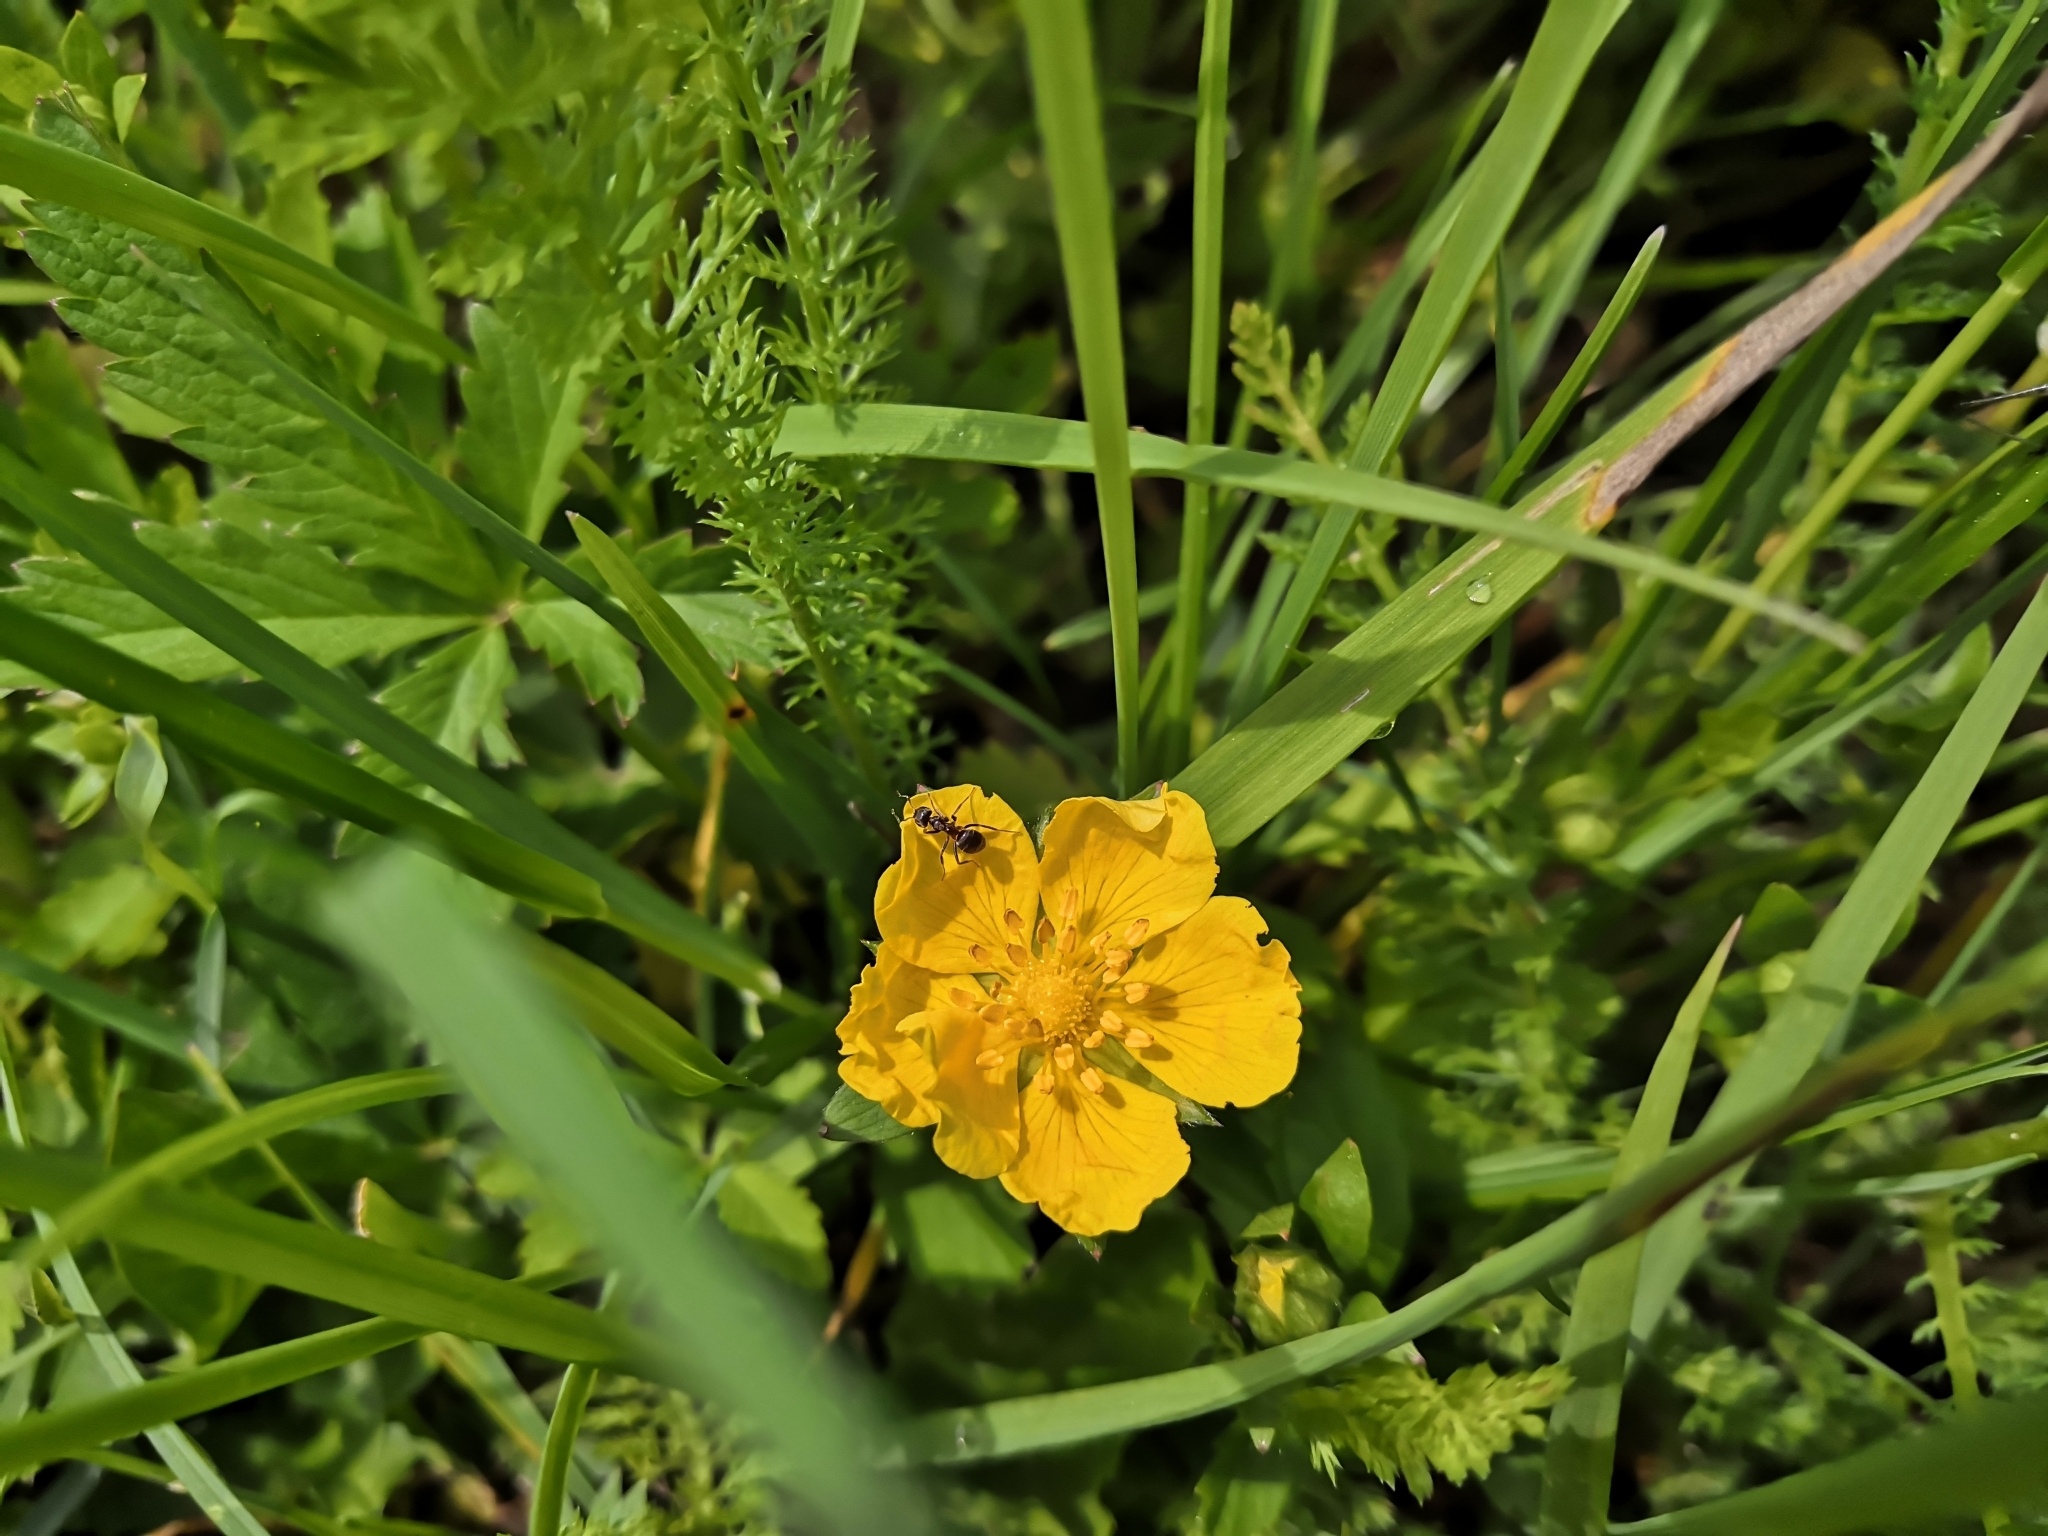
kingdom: Plantae
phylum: Tracheophyta
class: Magnoliopsida
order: Rosales
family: Rosaceae
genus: Potentilla
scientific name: Potentilla reptans
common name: Creeping cinquefoil
